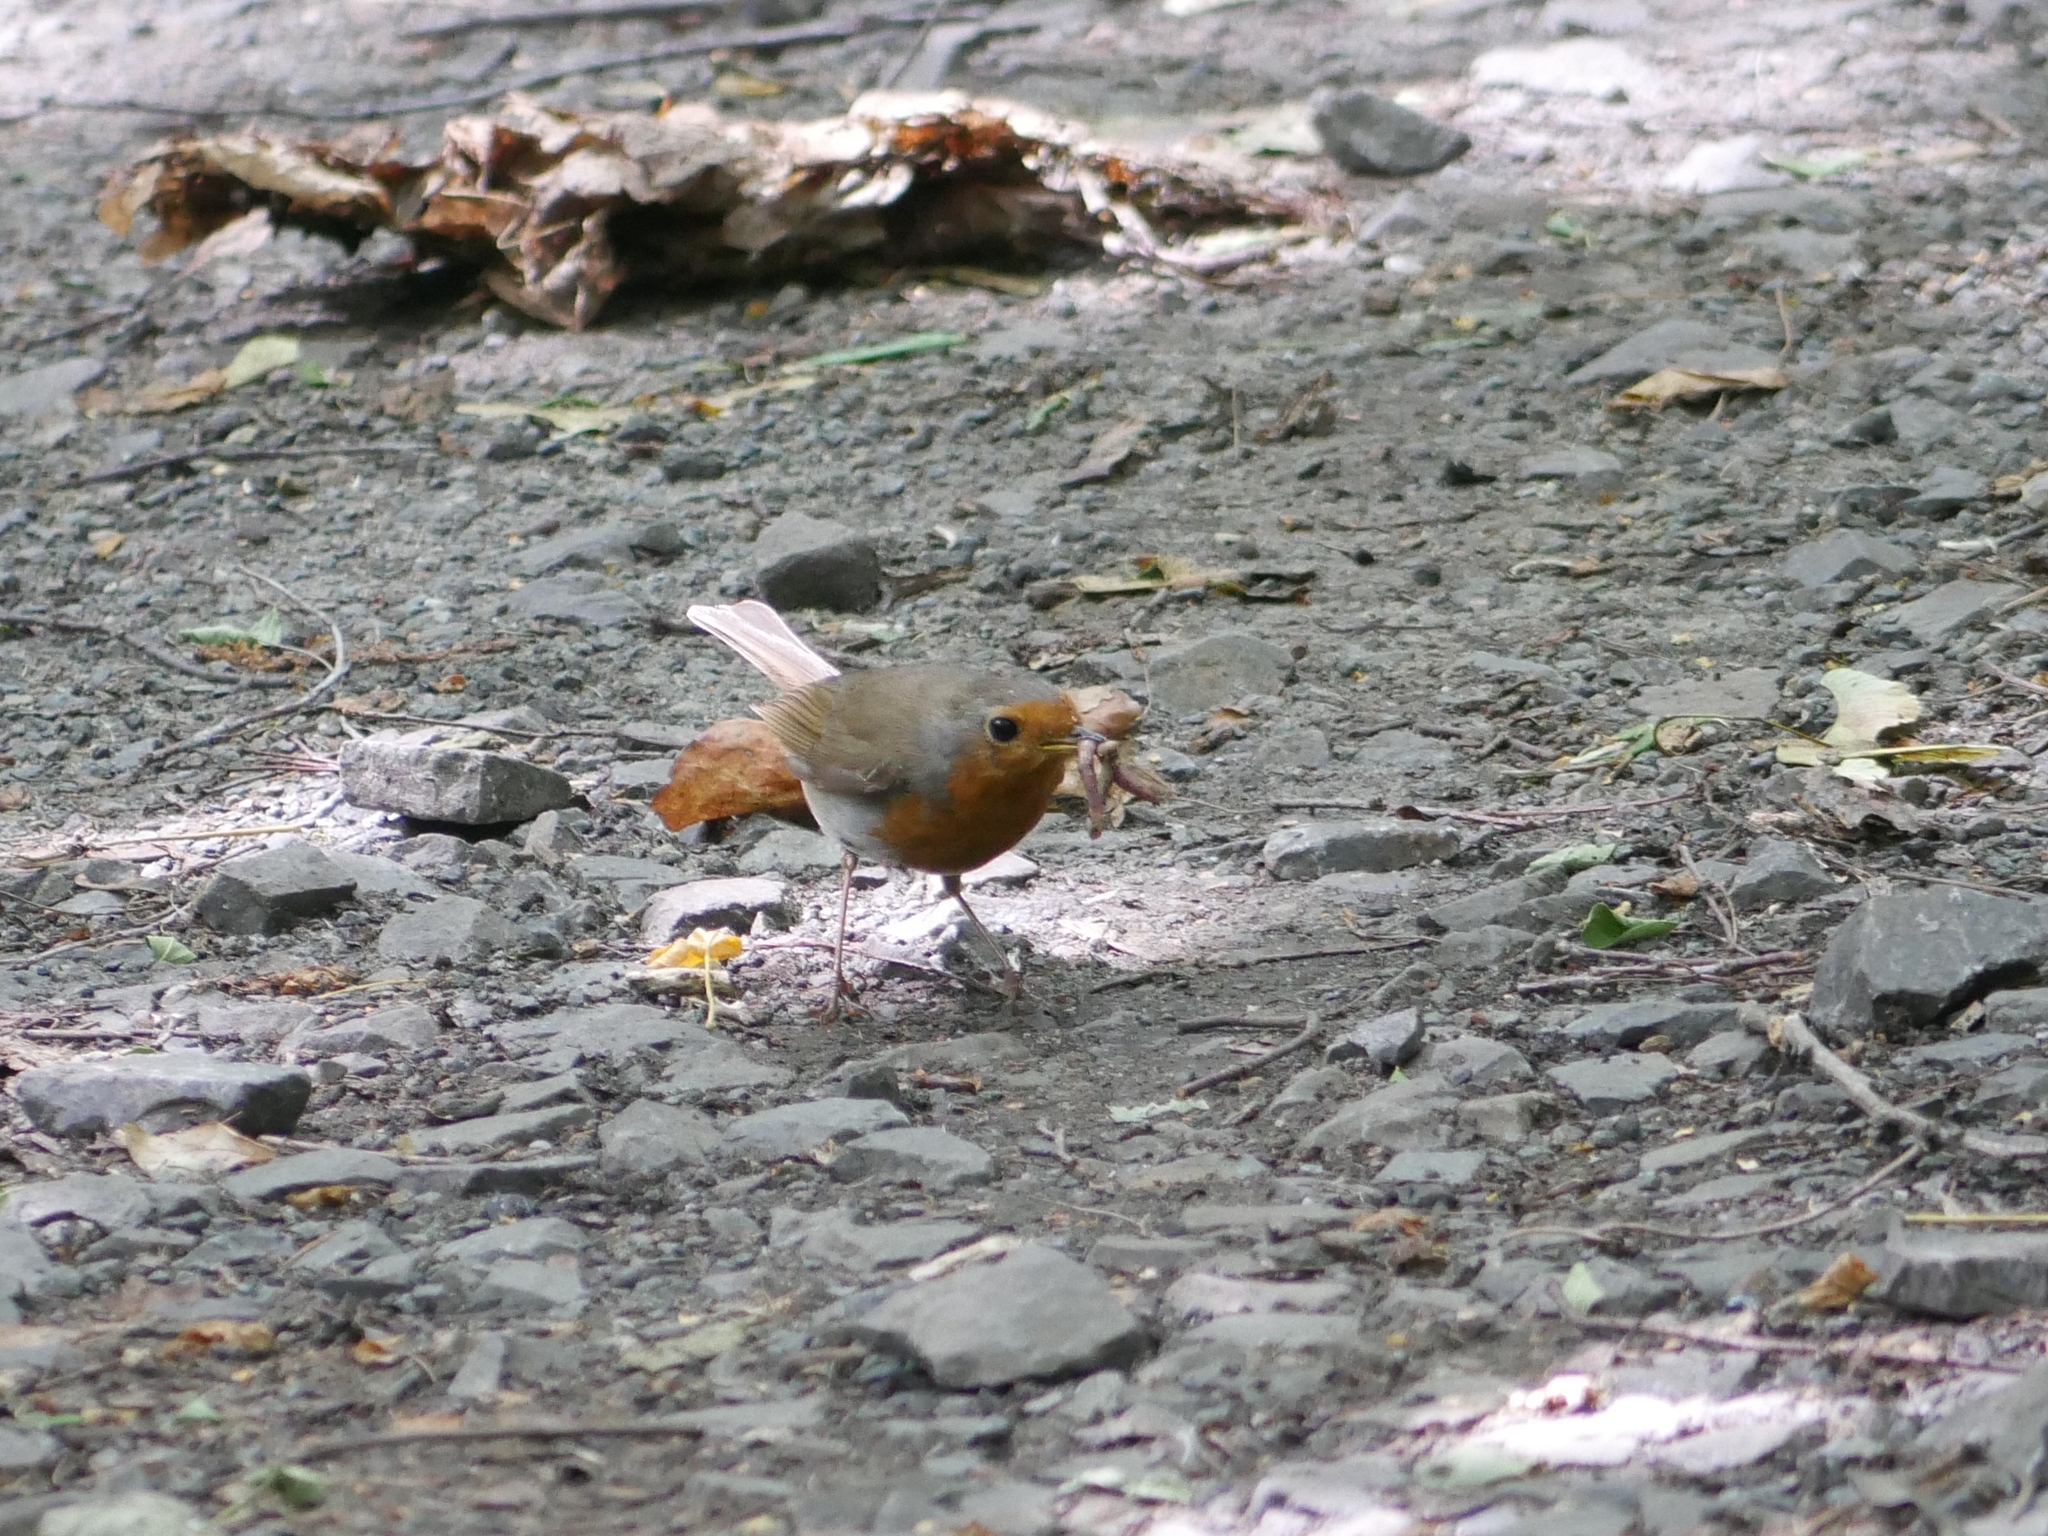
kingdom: Animalia
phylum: Chordata
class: Aves
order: Passeriformes
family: Muscicapidae
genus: Erithacus
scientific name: Erithacus rubecula
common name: European robin
